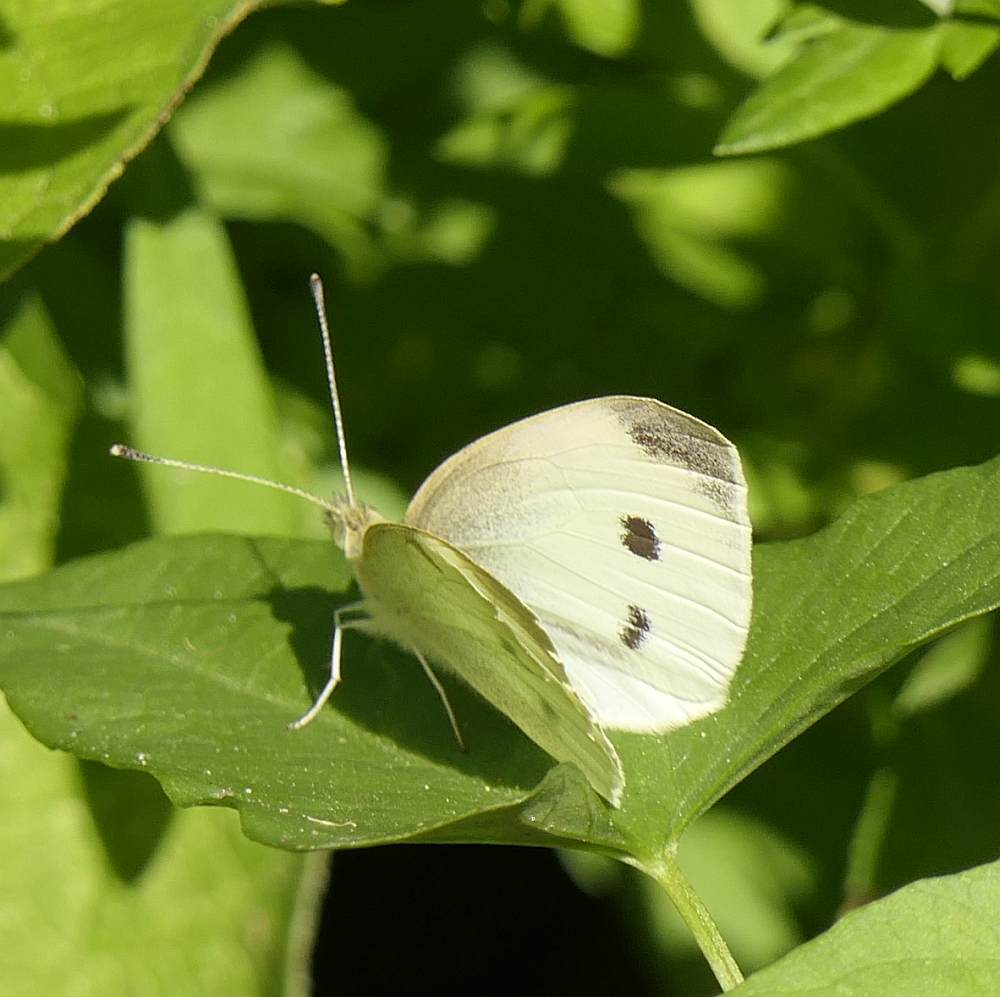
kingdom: Animalia
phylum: Arthropoda
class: Insecta
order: Lepidoptera
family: Pieridae
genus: Pieris
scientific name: Pieris rapae
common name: Small white
